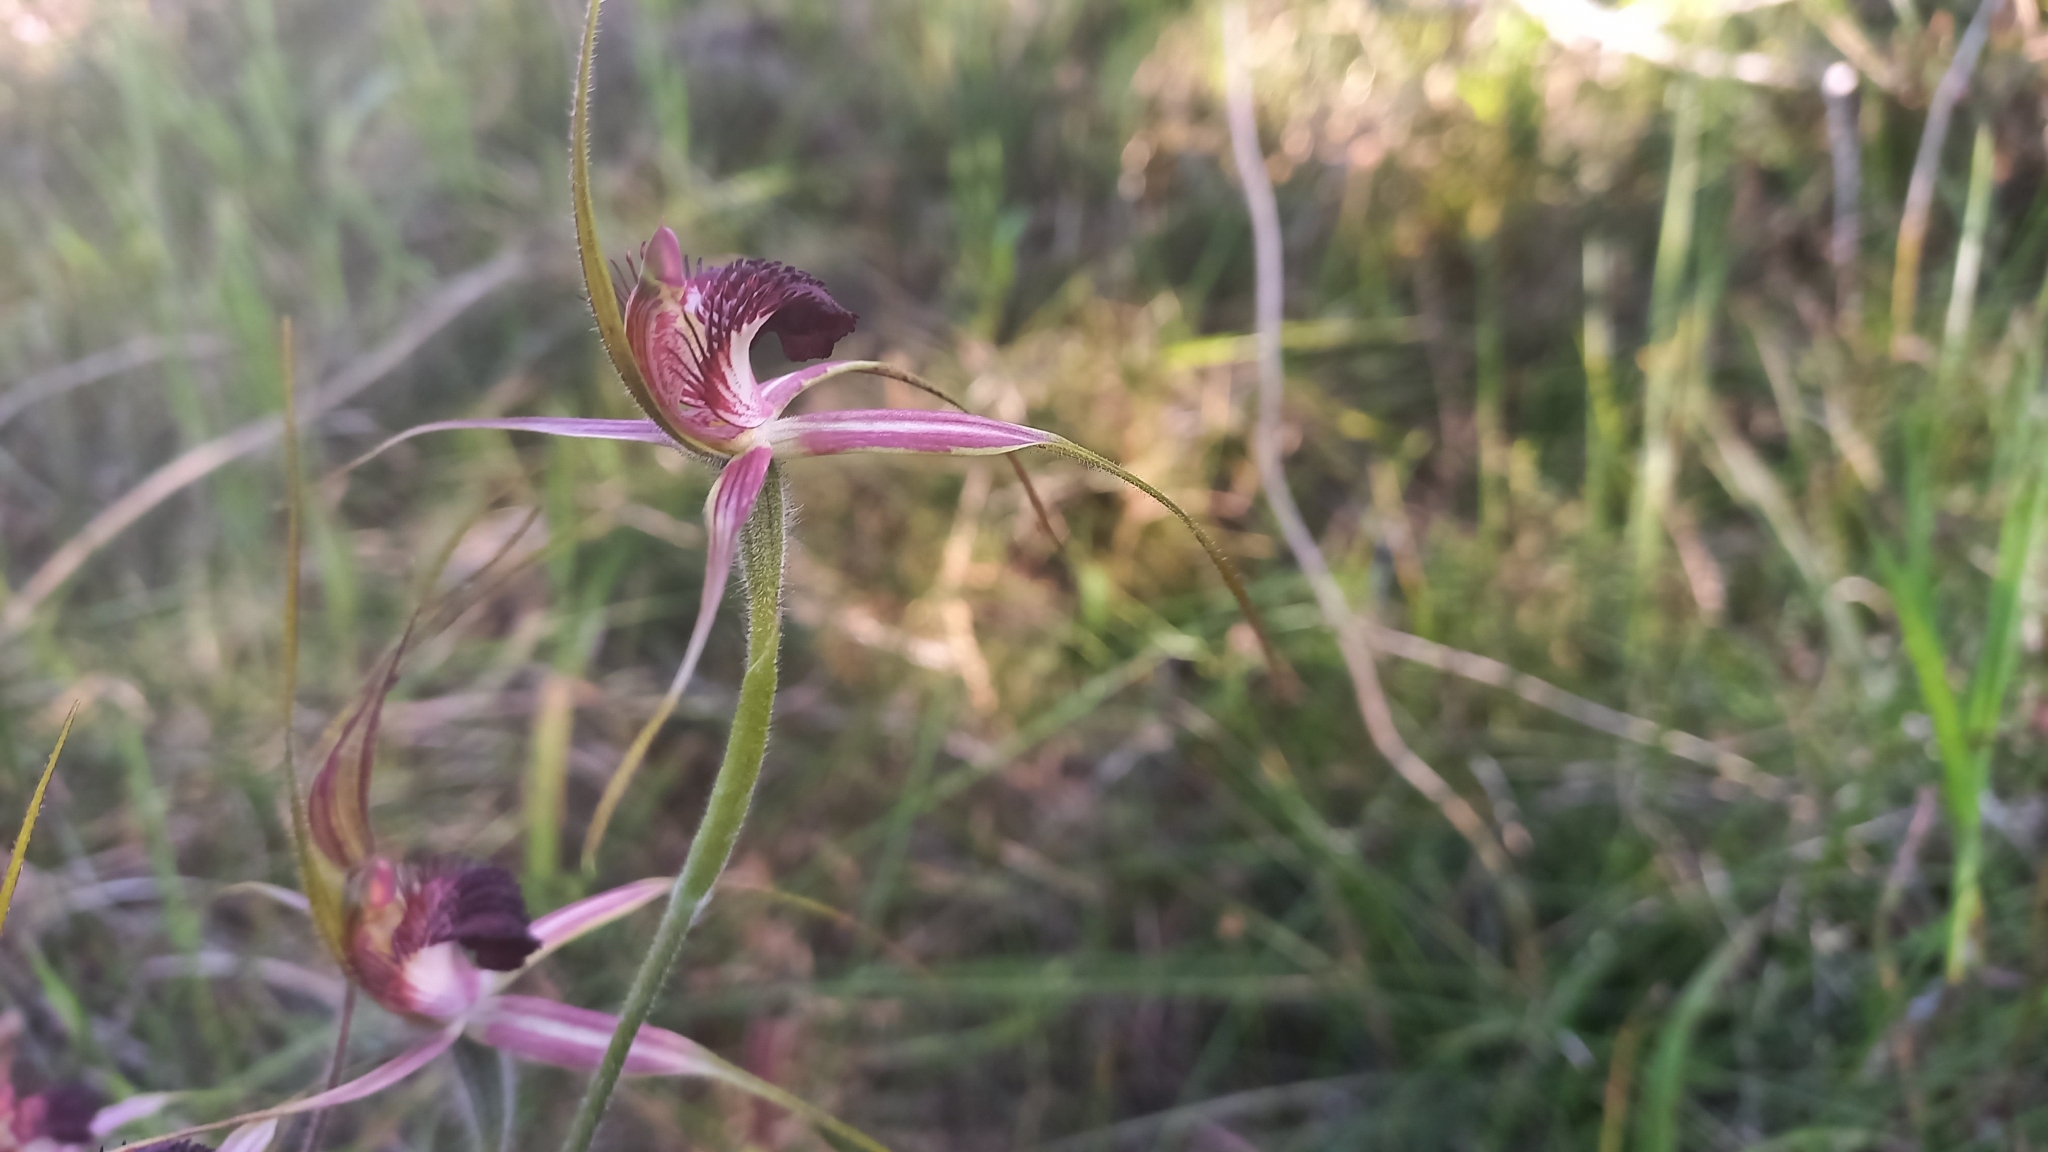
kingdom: Plantae
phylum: Tracheophyta
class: Liliopsida
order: Asparagales
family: Orchidaceae
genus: Caladenia
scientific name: Caladenia arenicola
